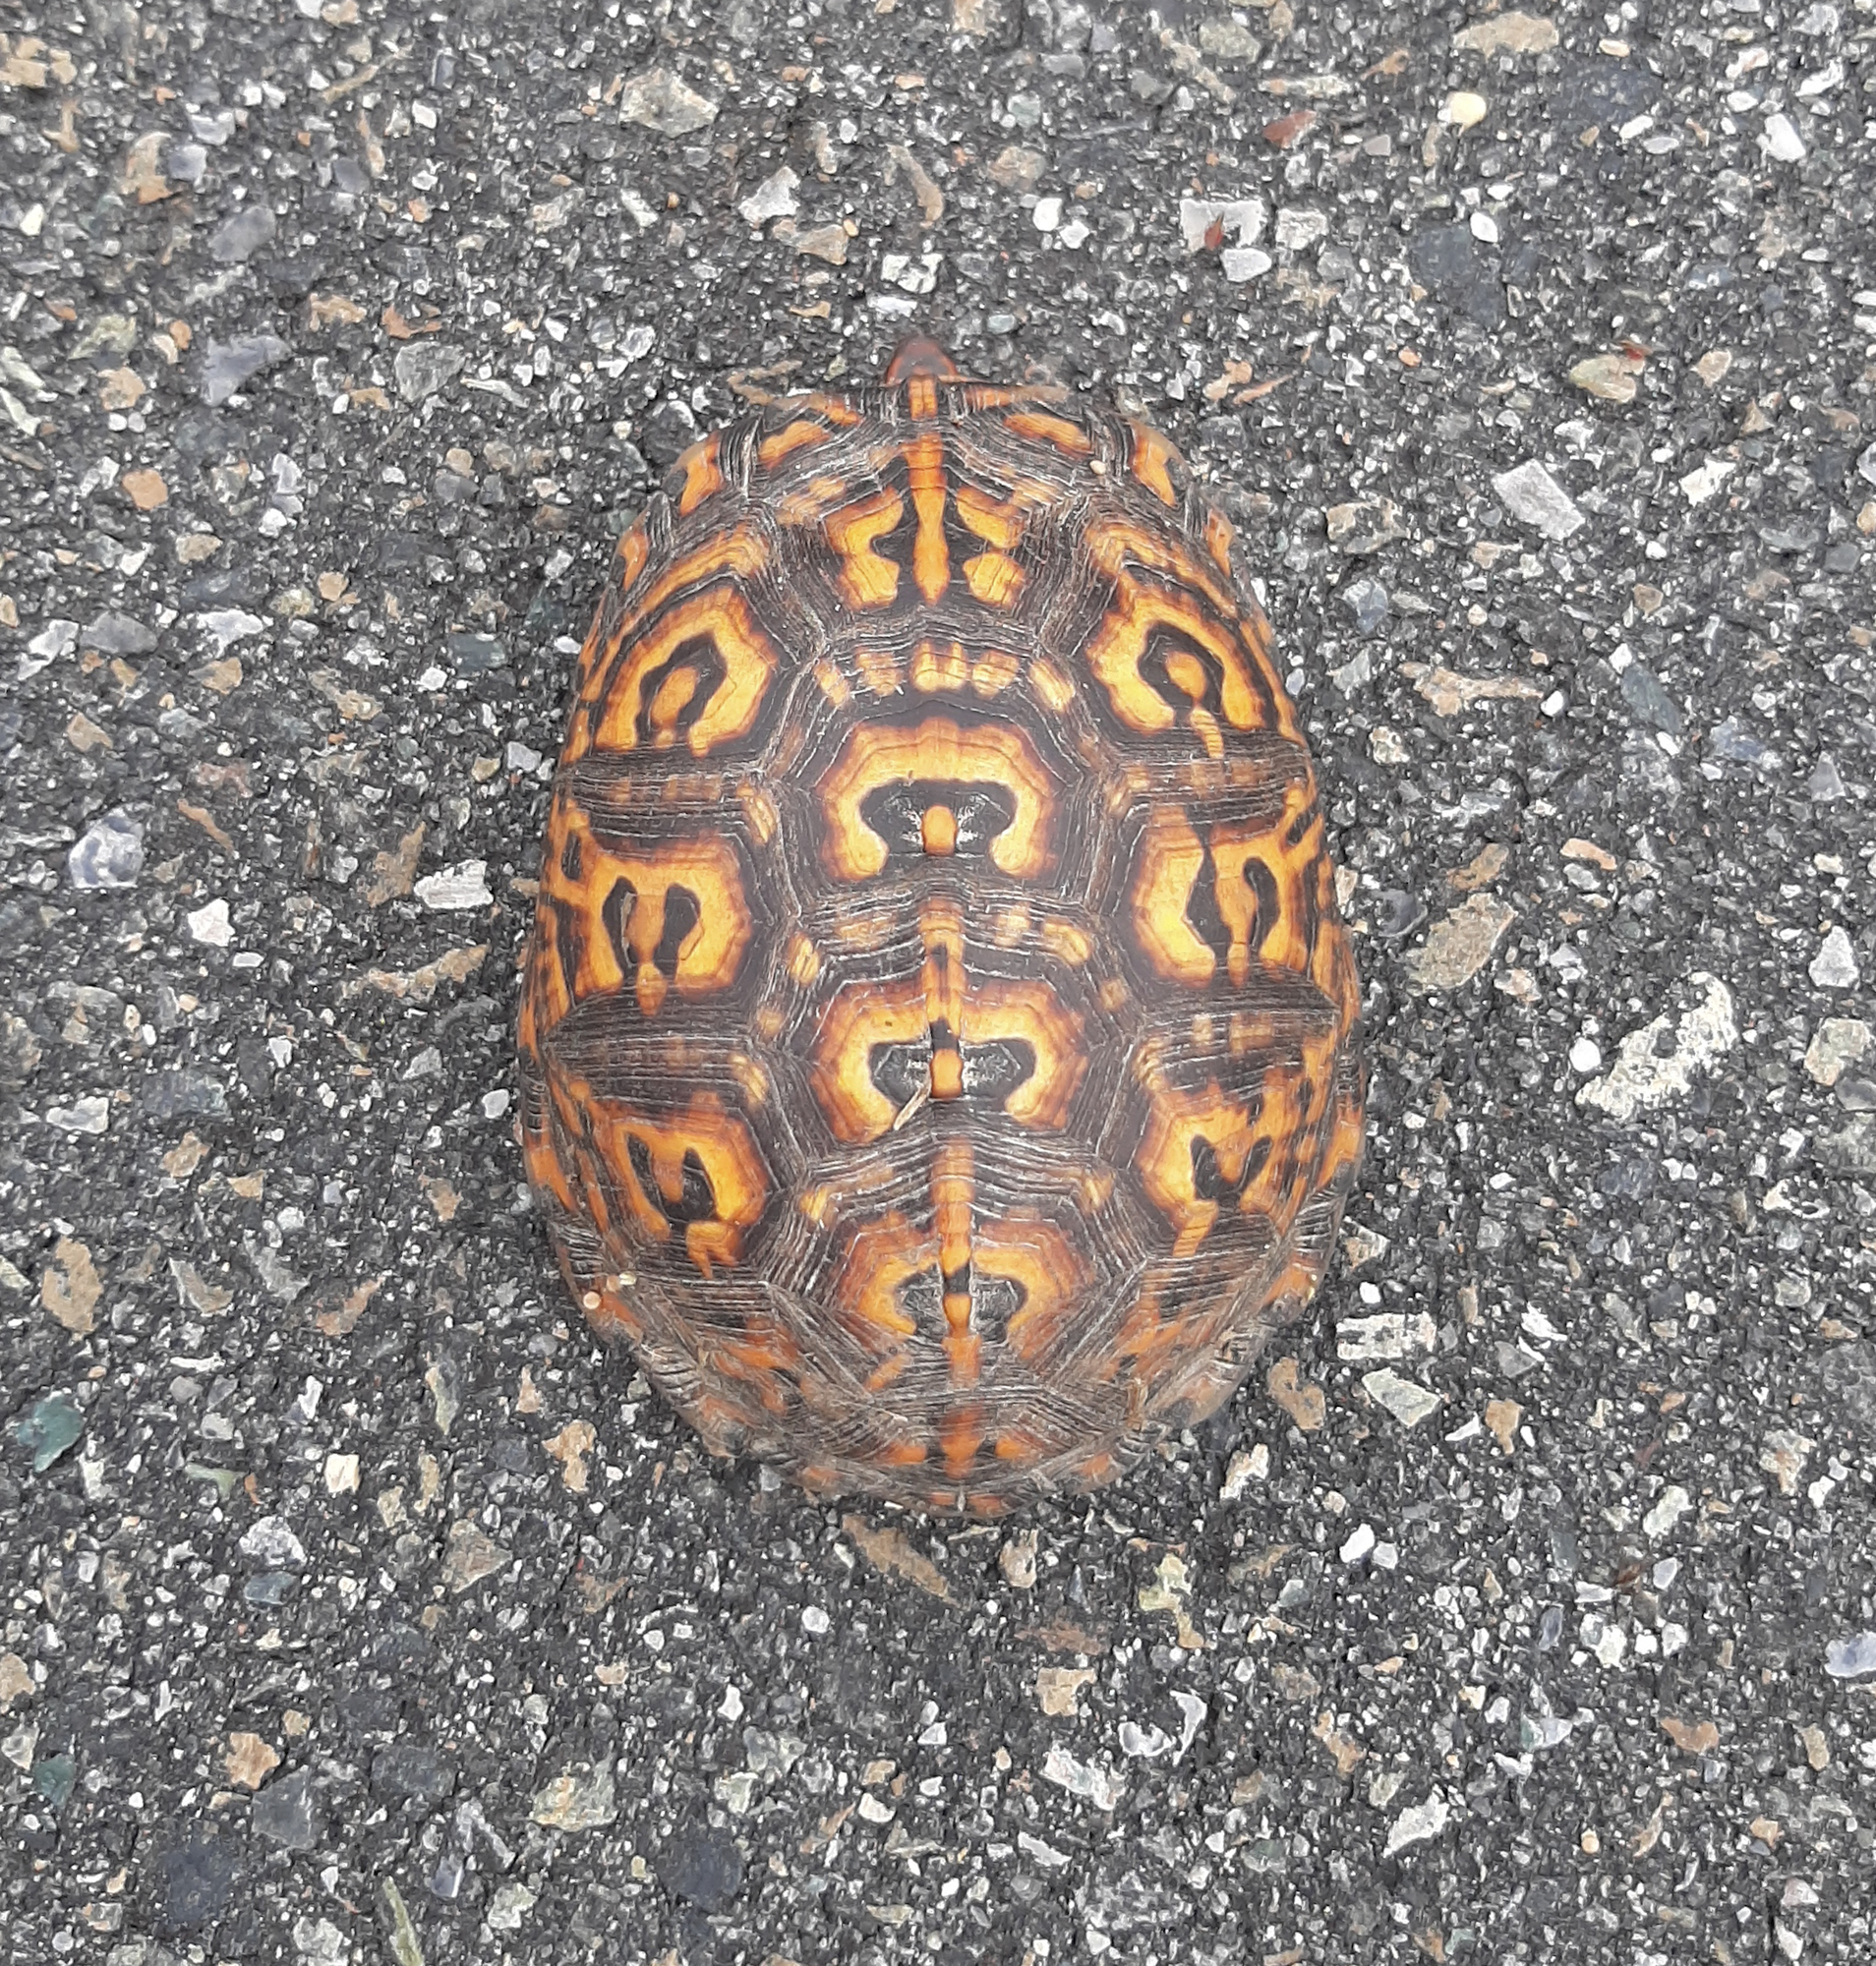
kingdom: Animalia
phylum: Chordata
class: Testudines
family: Emydidae
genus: Terrapene
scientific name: Terrapene carolina
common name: Common box turtle
